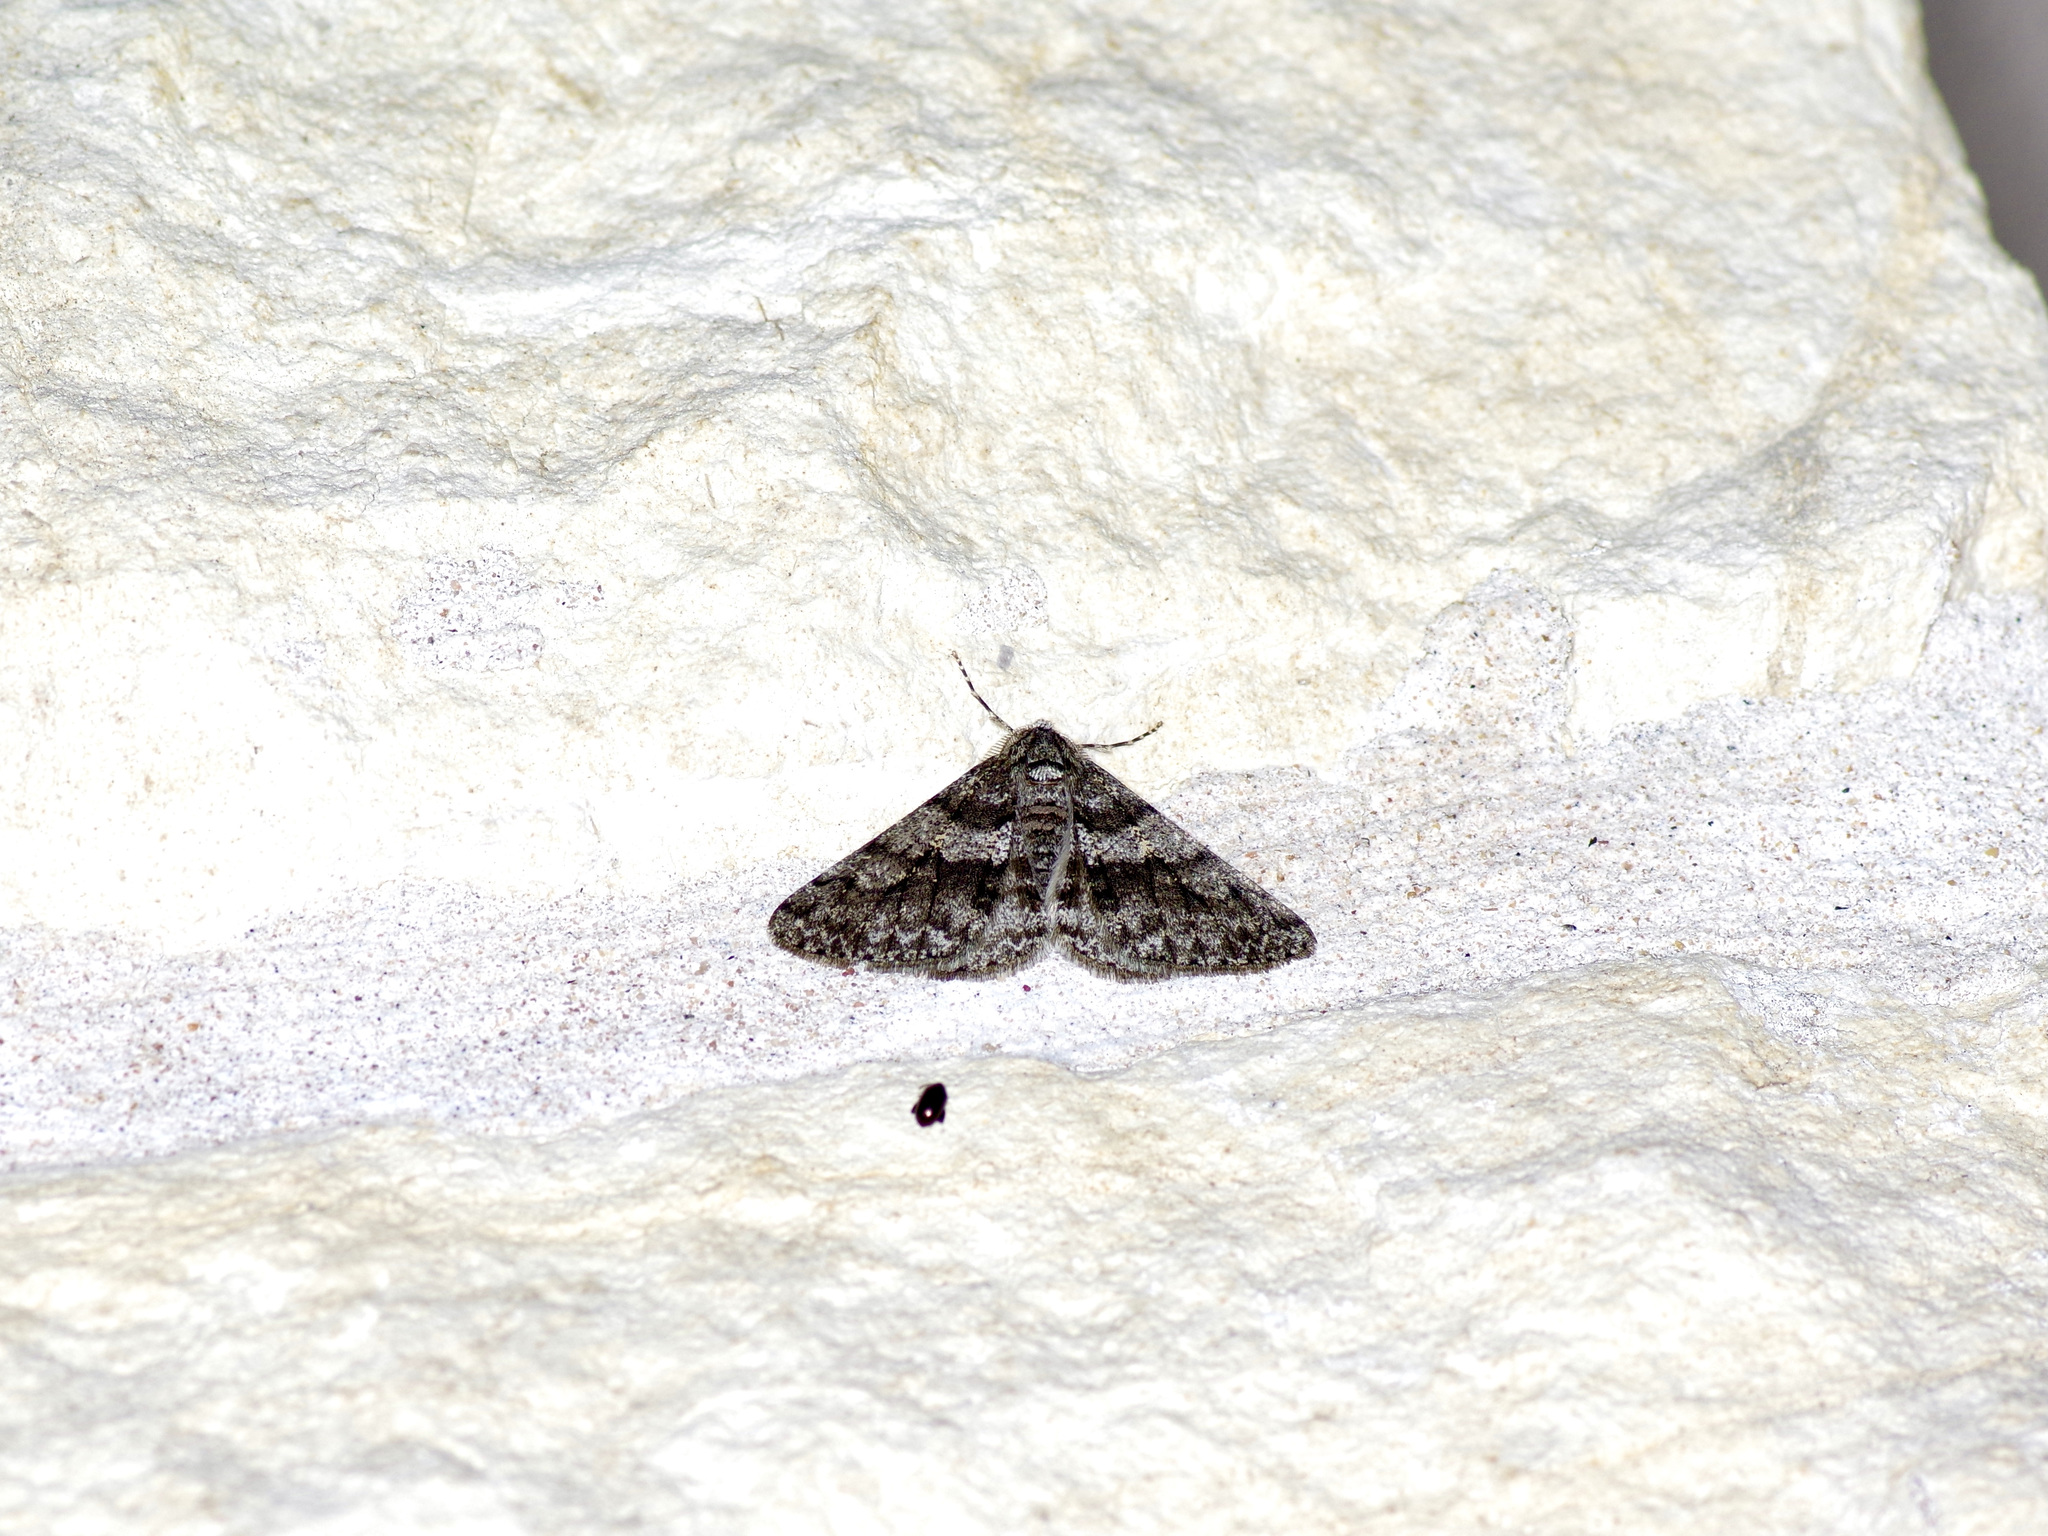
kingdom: Animalia
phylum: Arthropoda
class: Insecta
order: Lepidoptera
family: Geometridae
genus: Phigalia
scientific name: Phigalia titea
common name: Spiny looper
